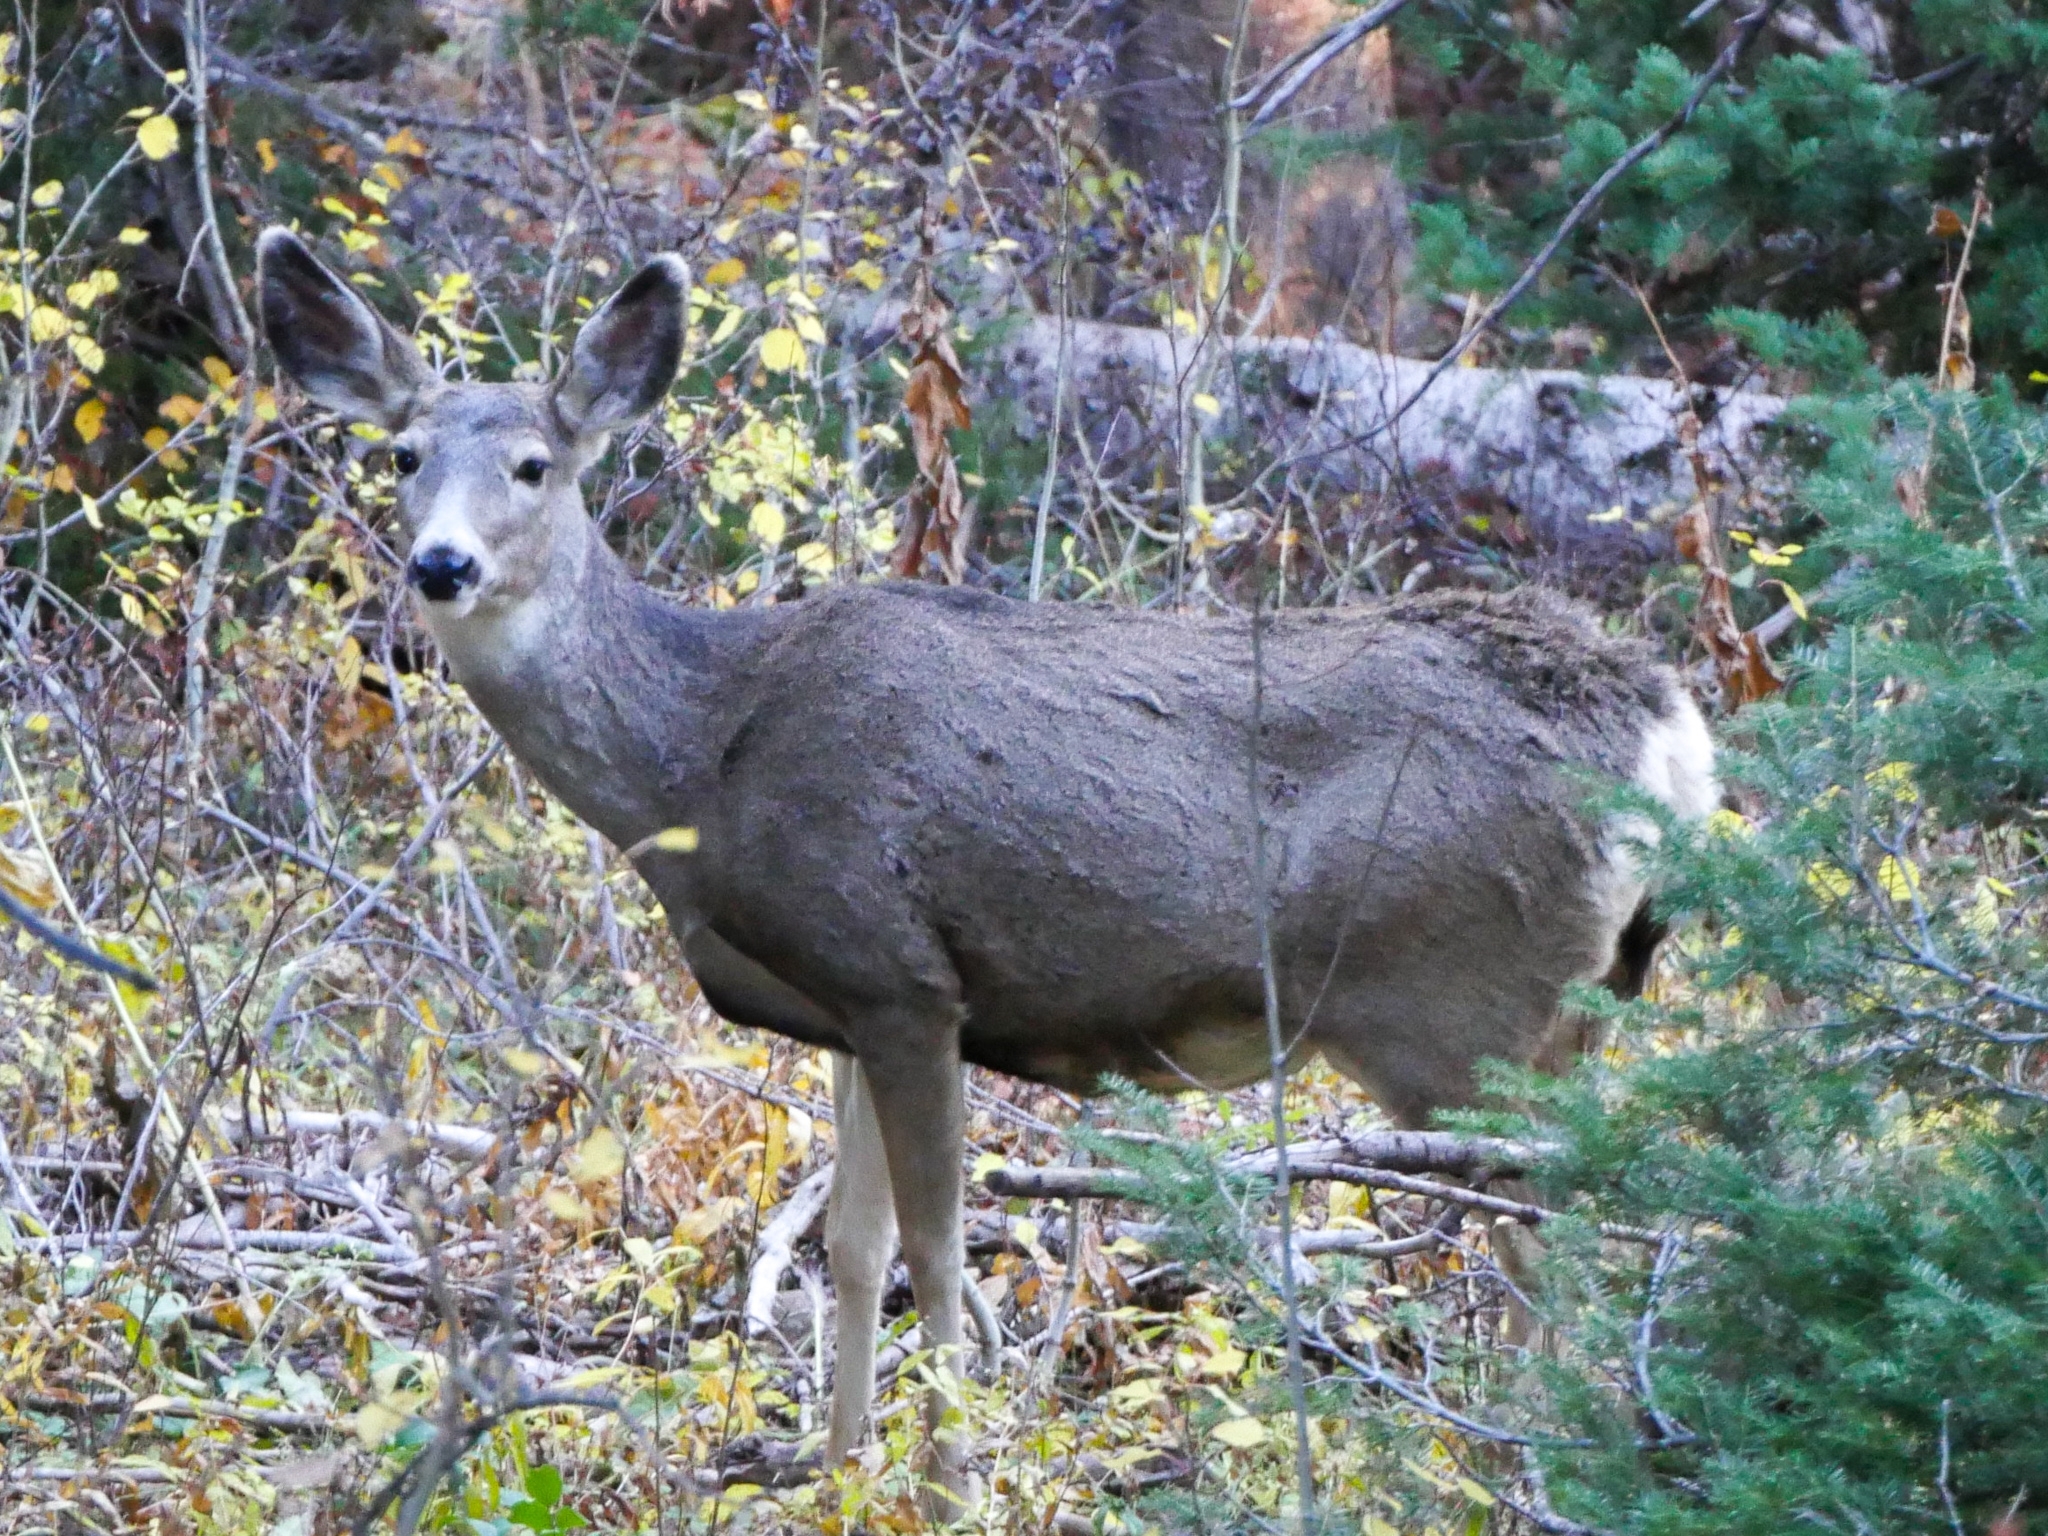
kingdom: Animalia
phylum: Chordata
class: Mammalia
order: Artiodactyla
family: Cervidae
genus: Odocoileus
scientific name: Odocoileus hemionus
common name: Mule deer
